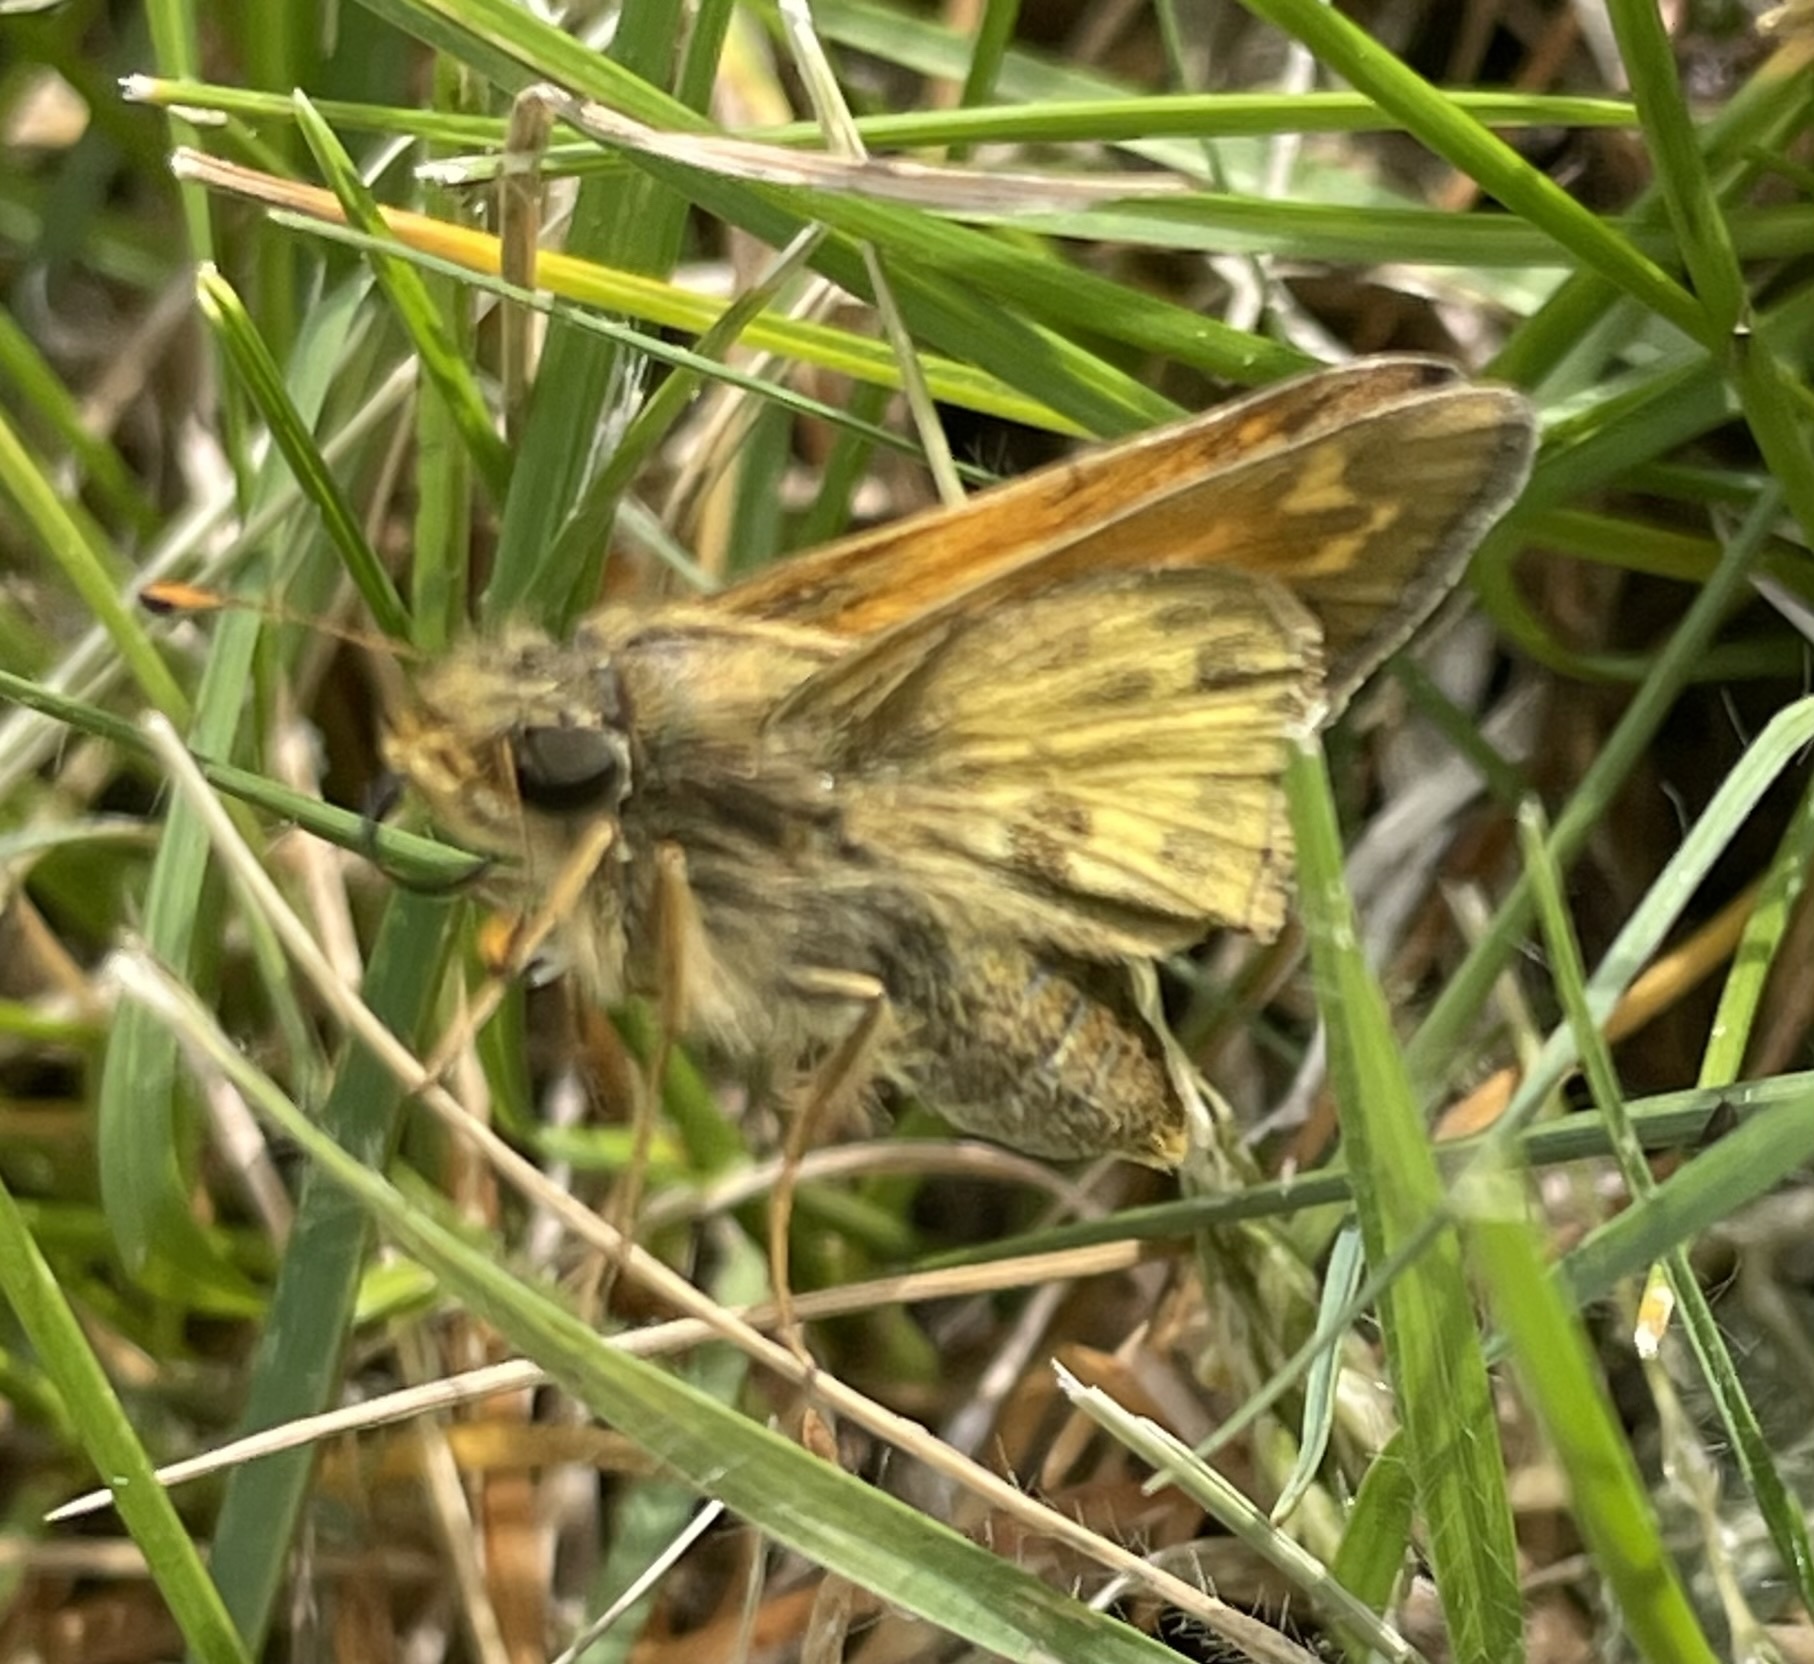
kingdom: Animalia
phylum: Arthropoda
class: Insecta
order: Lepidoptera
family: Hesperiidae
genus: Atalopedes
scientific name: Atalopedes
